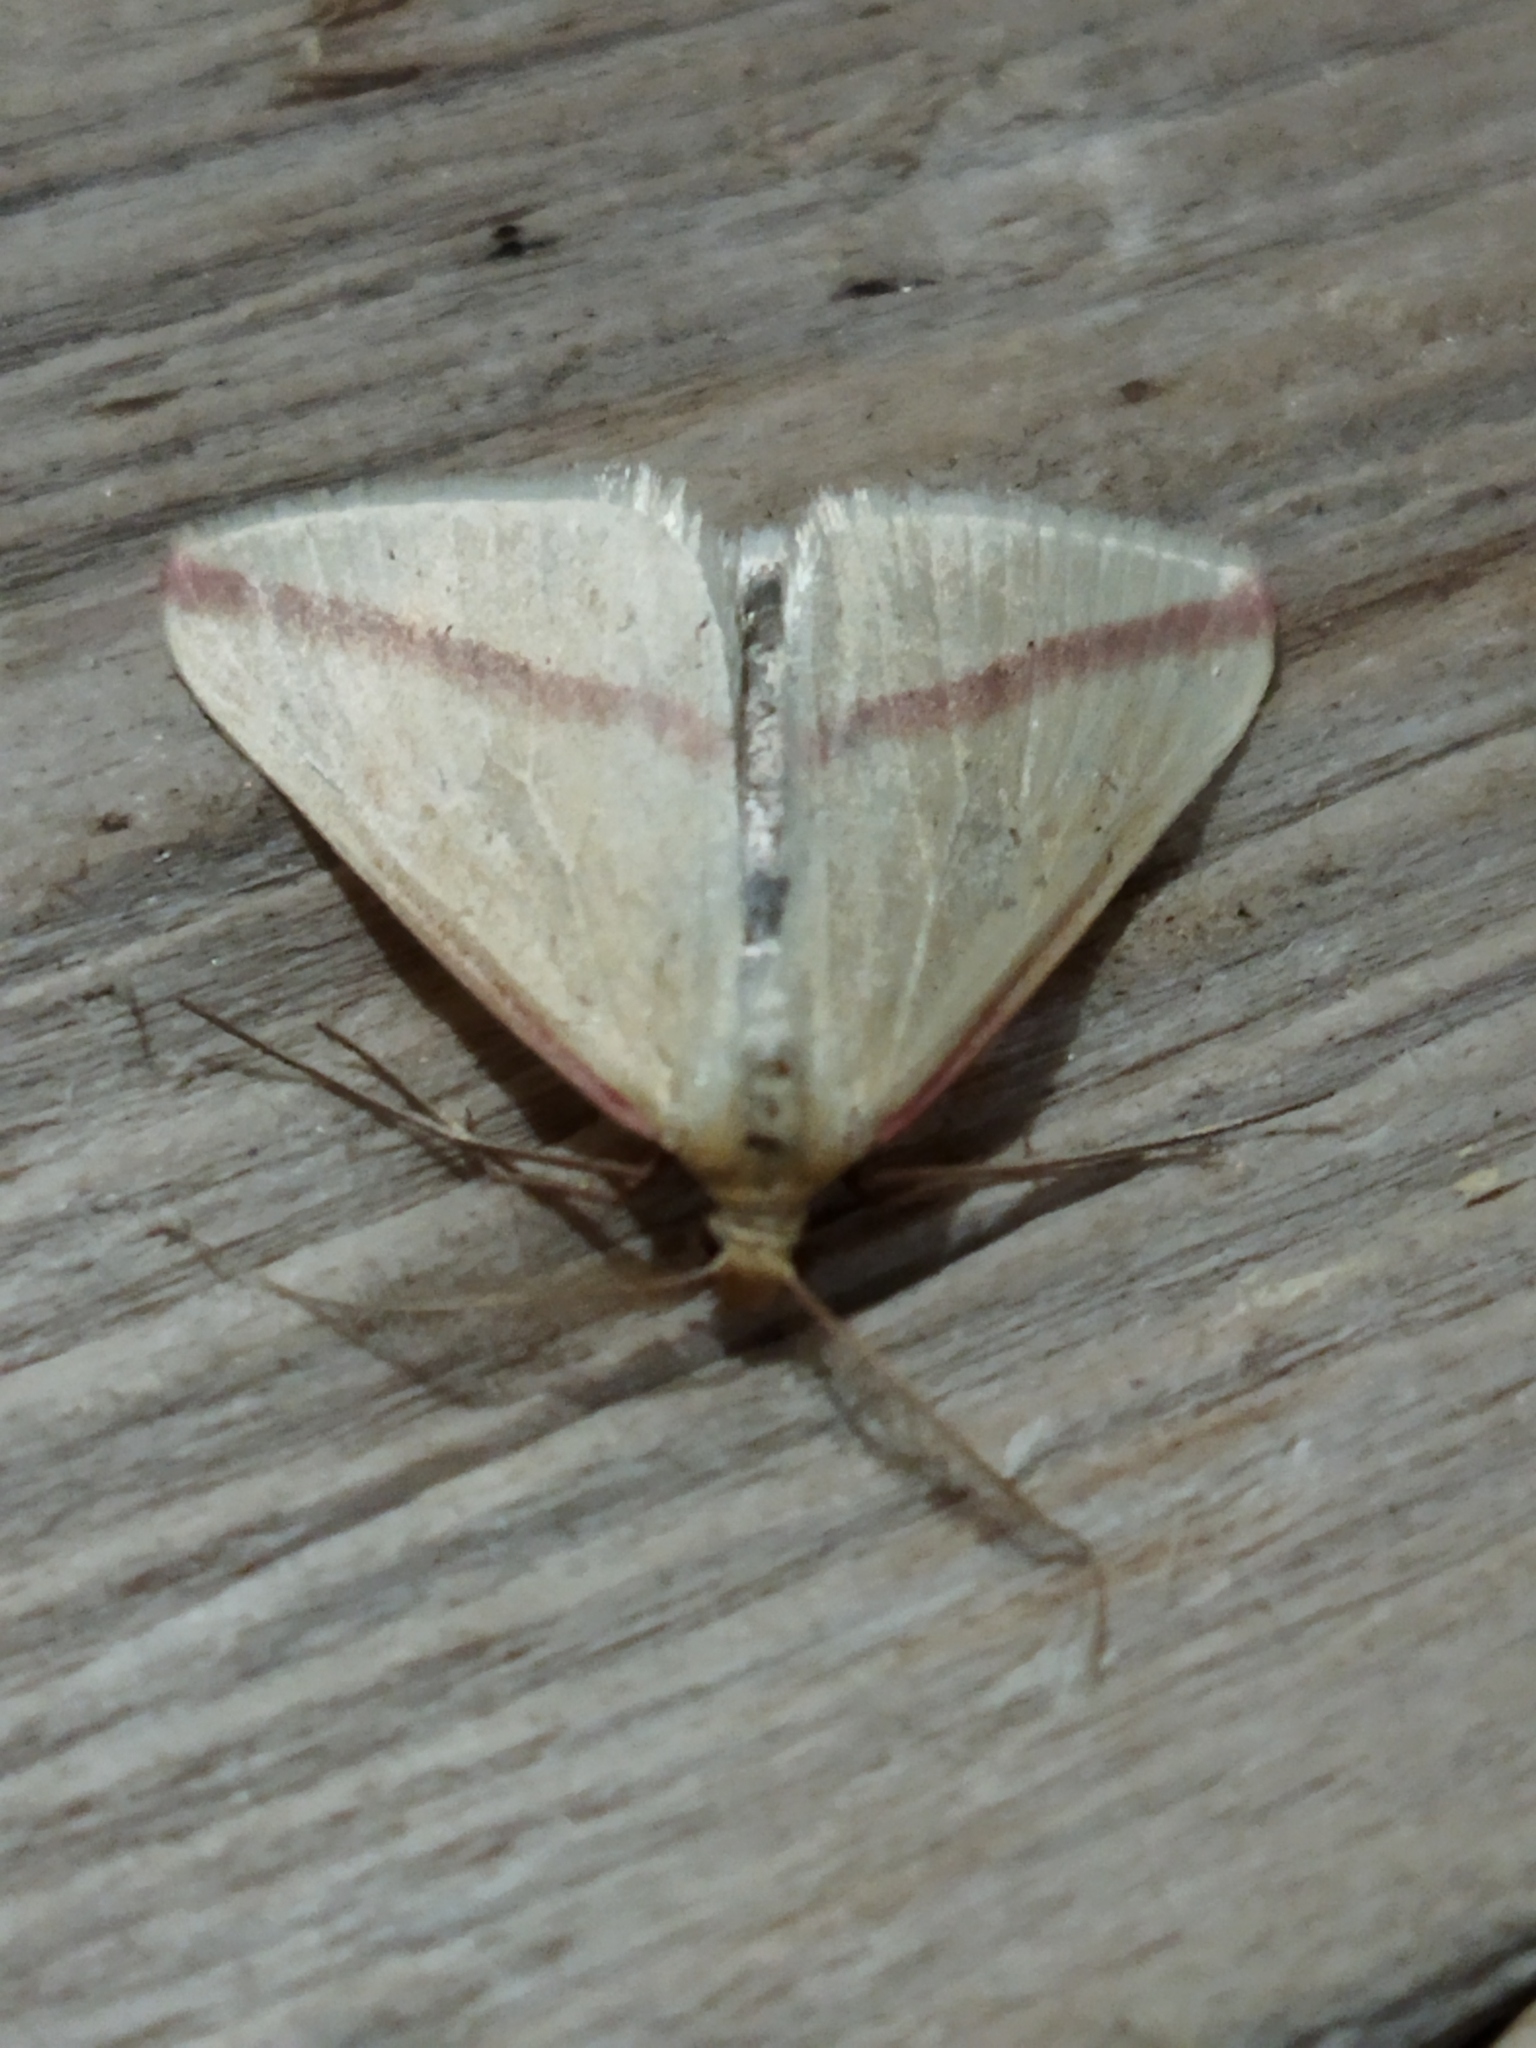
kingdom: Animalia
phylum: Arthropoda
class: Insecta
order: Lepidoptera
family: Geometridae
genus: Rhodometra
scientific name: Rhodometra sacraria
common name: Vestal
